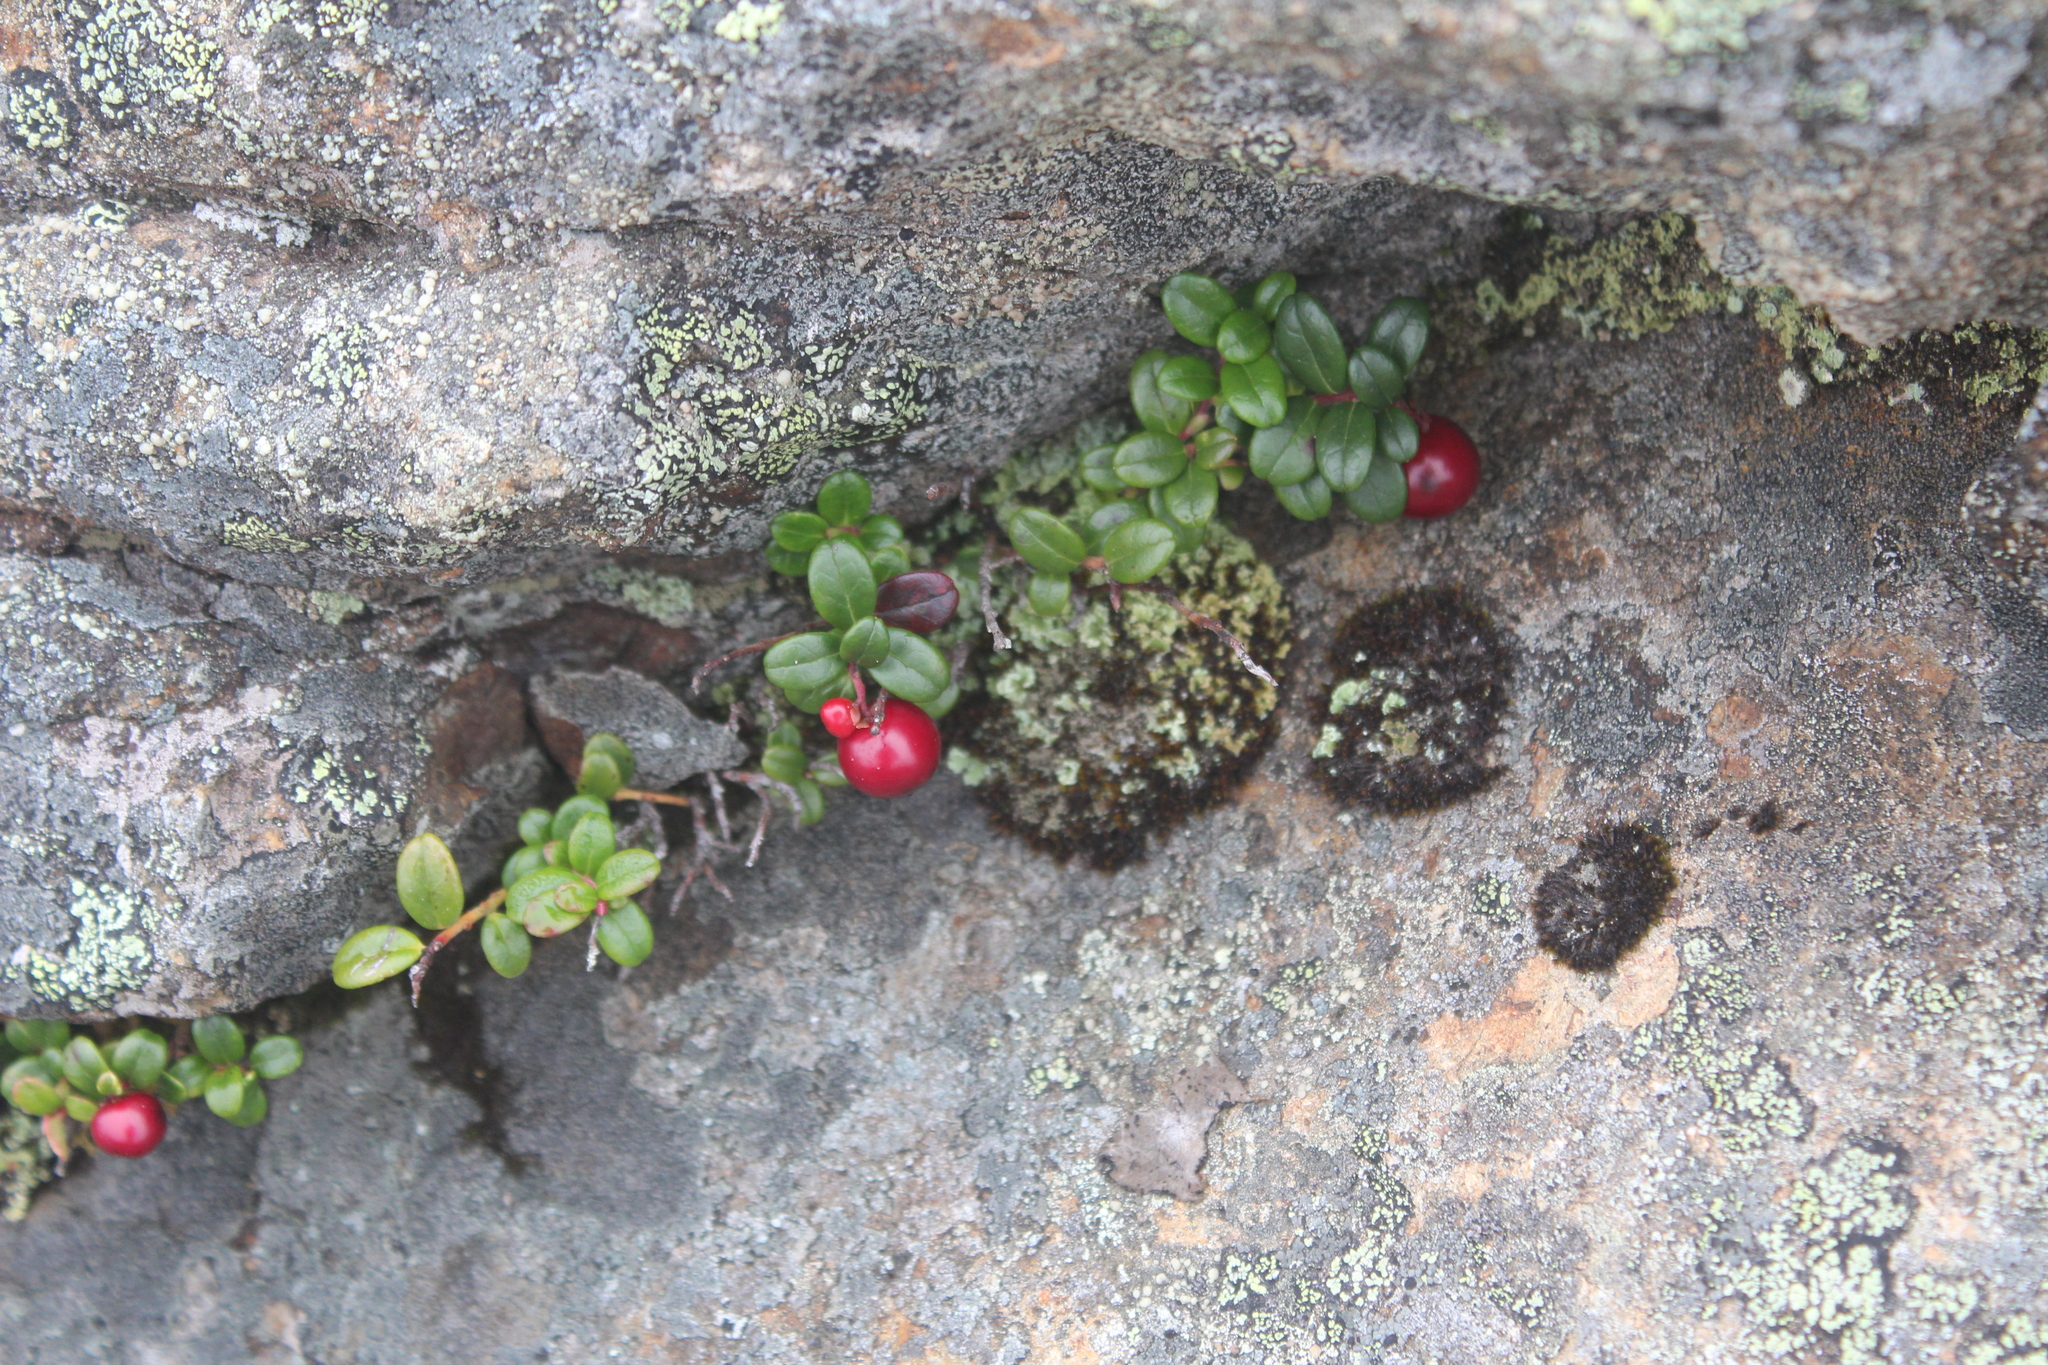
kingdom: Plantae
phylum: Tracheophyta
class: Magnoliopsida
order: Ericales
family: Ericaceae
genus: Vaccinium
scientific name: Vaccinium vitis-idaea
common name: Cowberry
